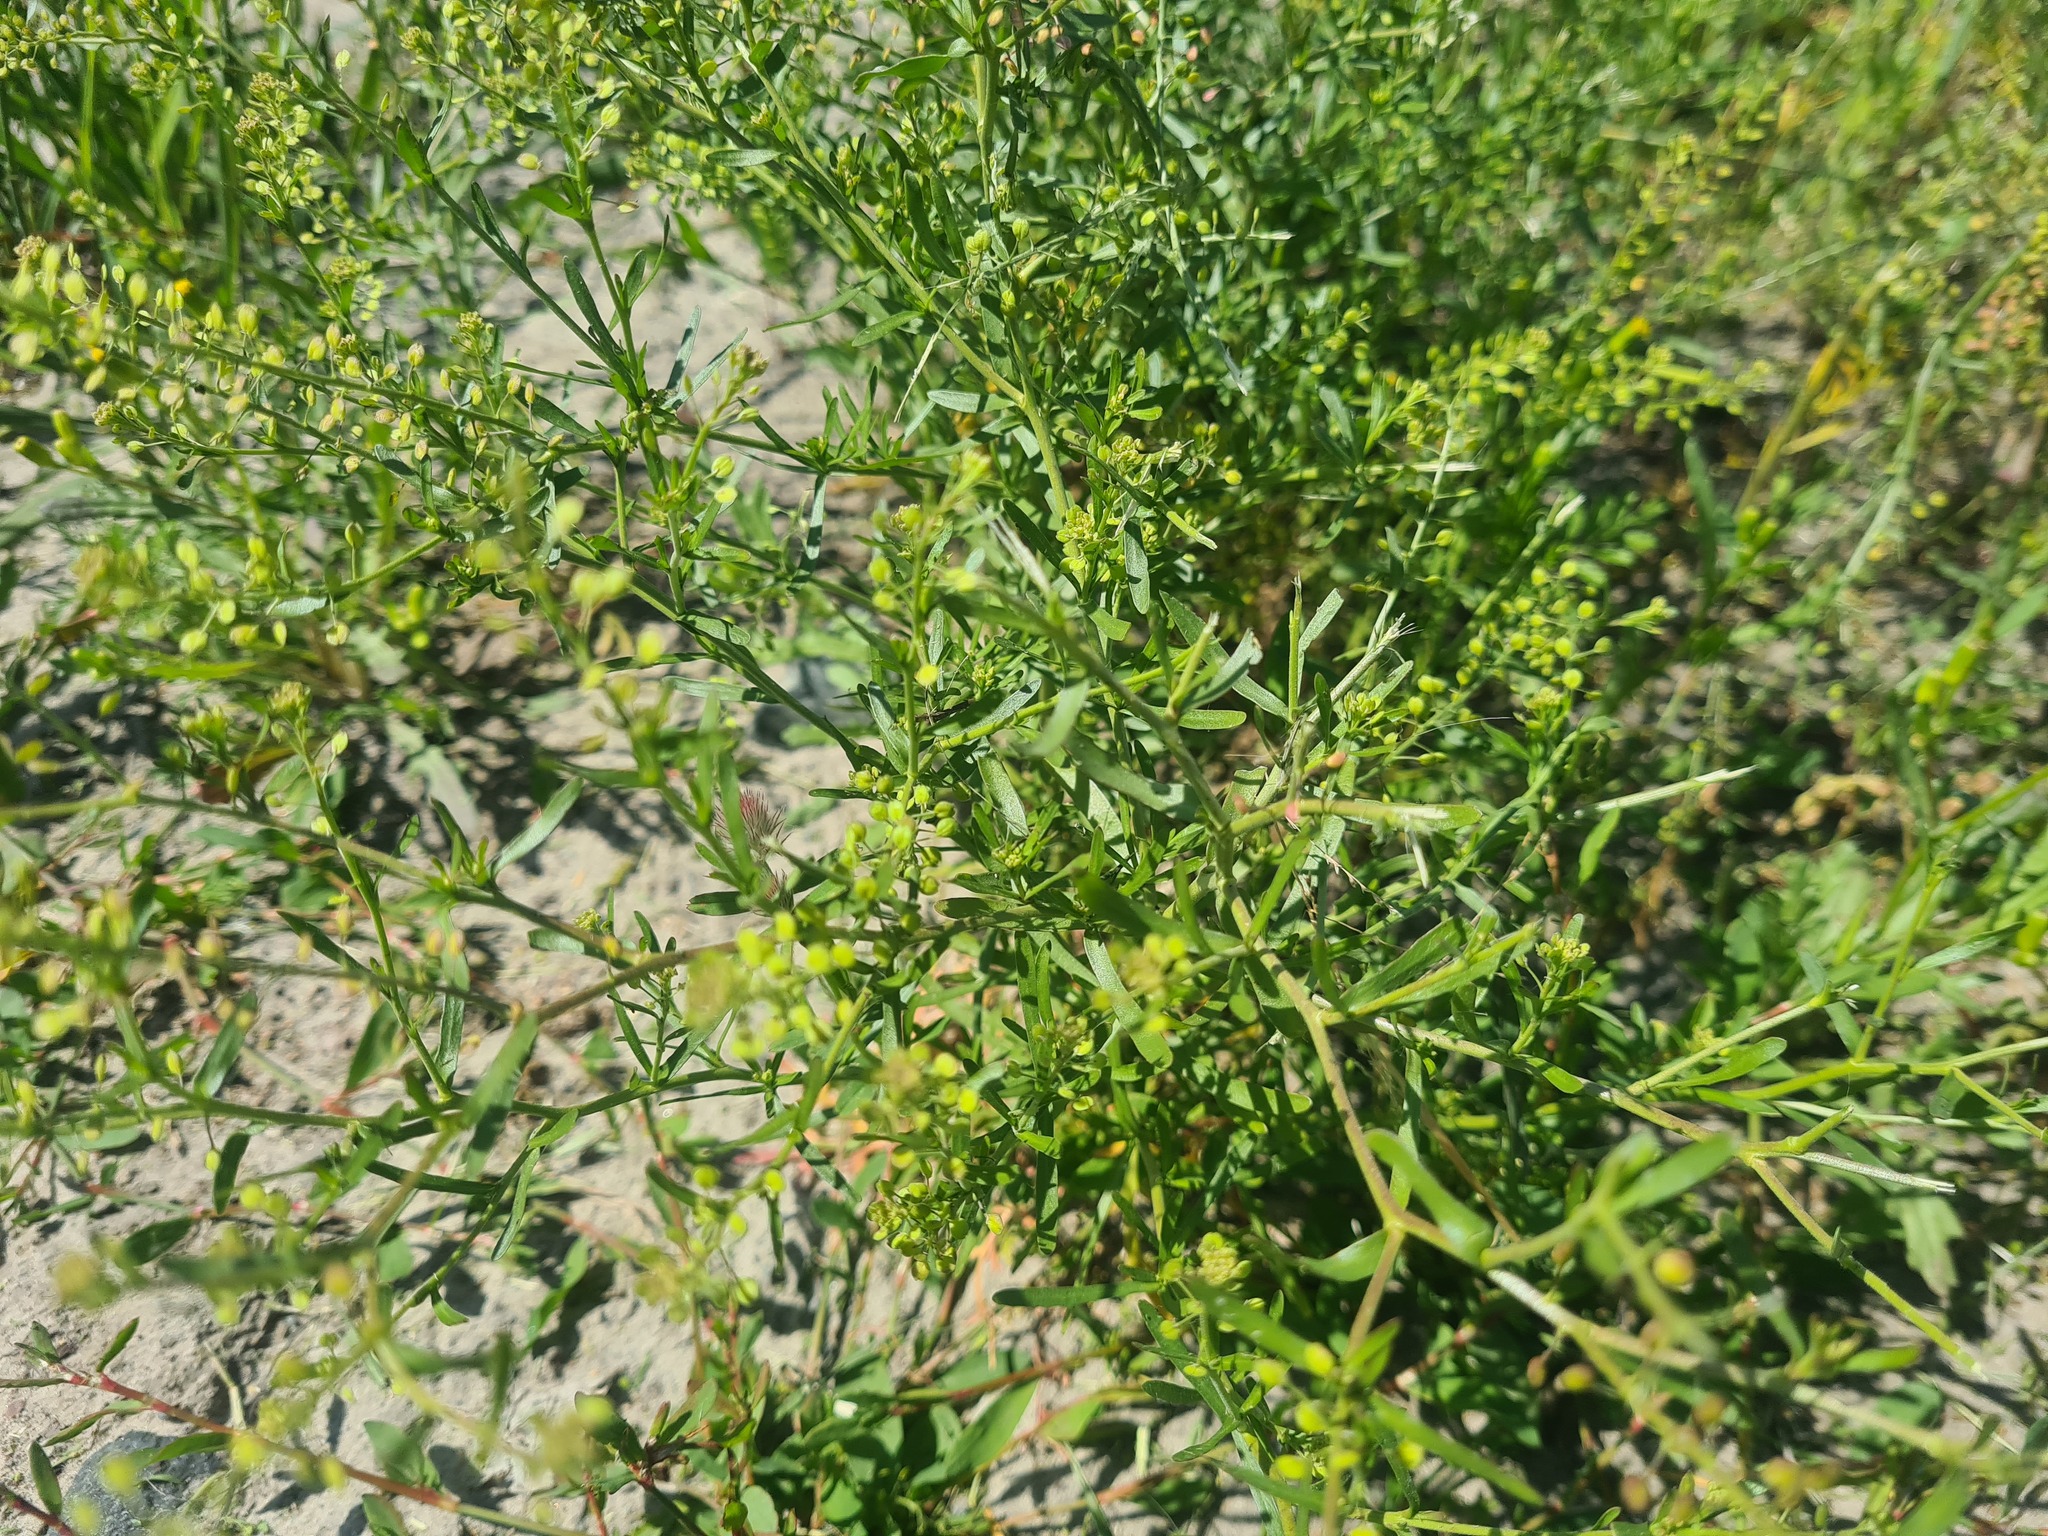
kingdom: Plantae
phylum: Tracheophyta
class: Magnoliopsida
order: Brassicales
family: Brassicaceae
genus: Lepidium
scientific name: Lepidium ruderale
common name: Narrow-leaved pepperwort
